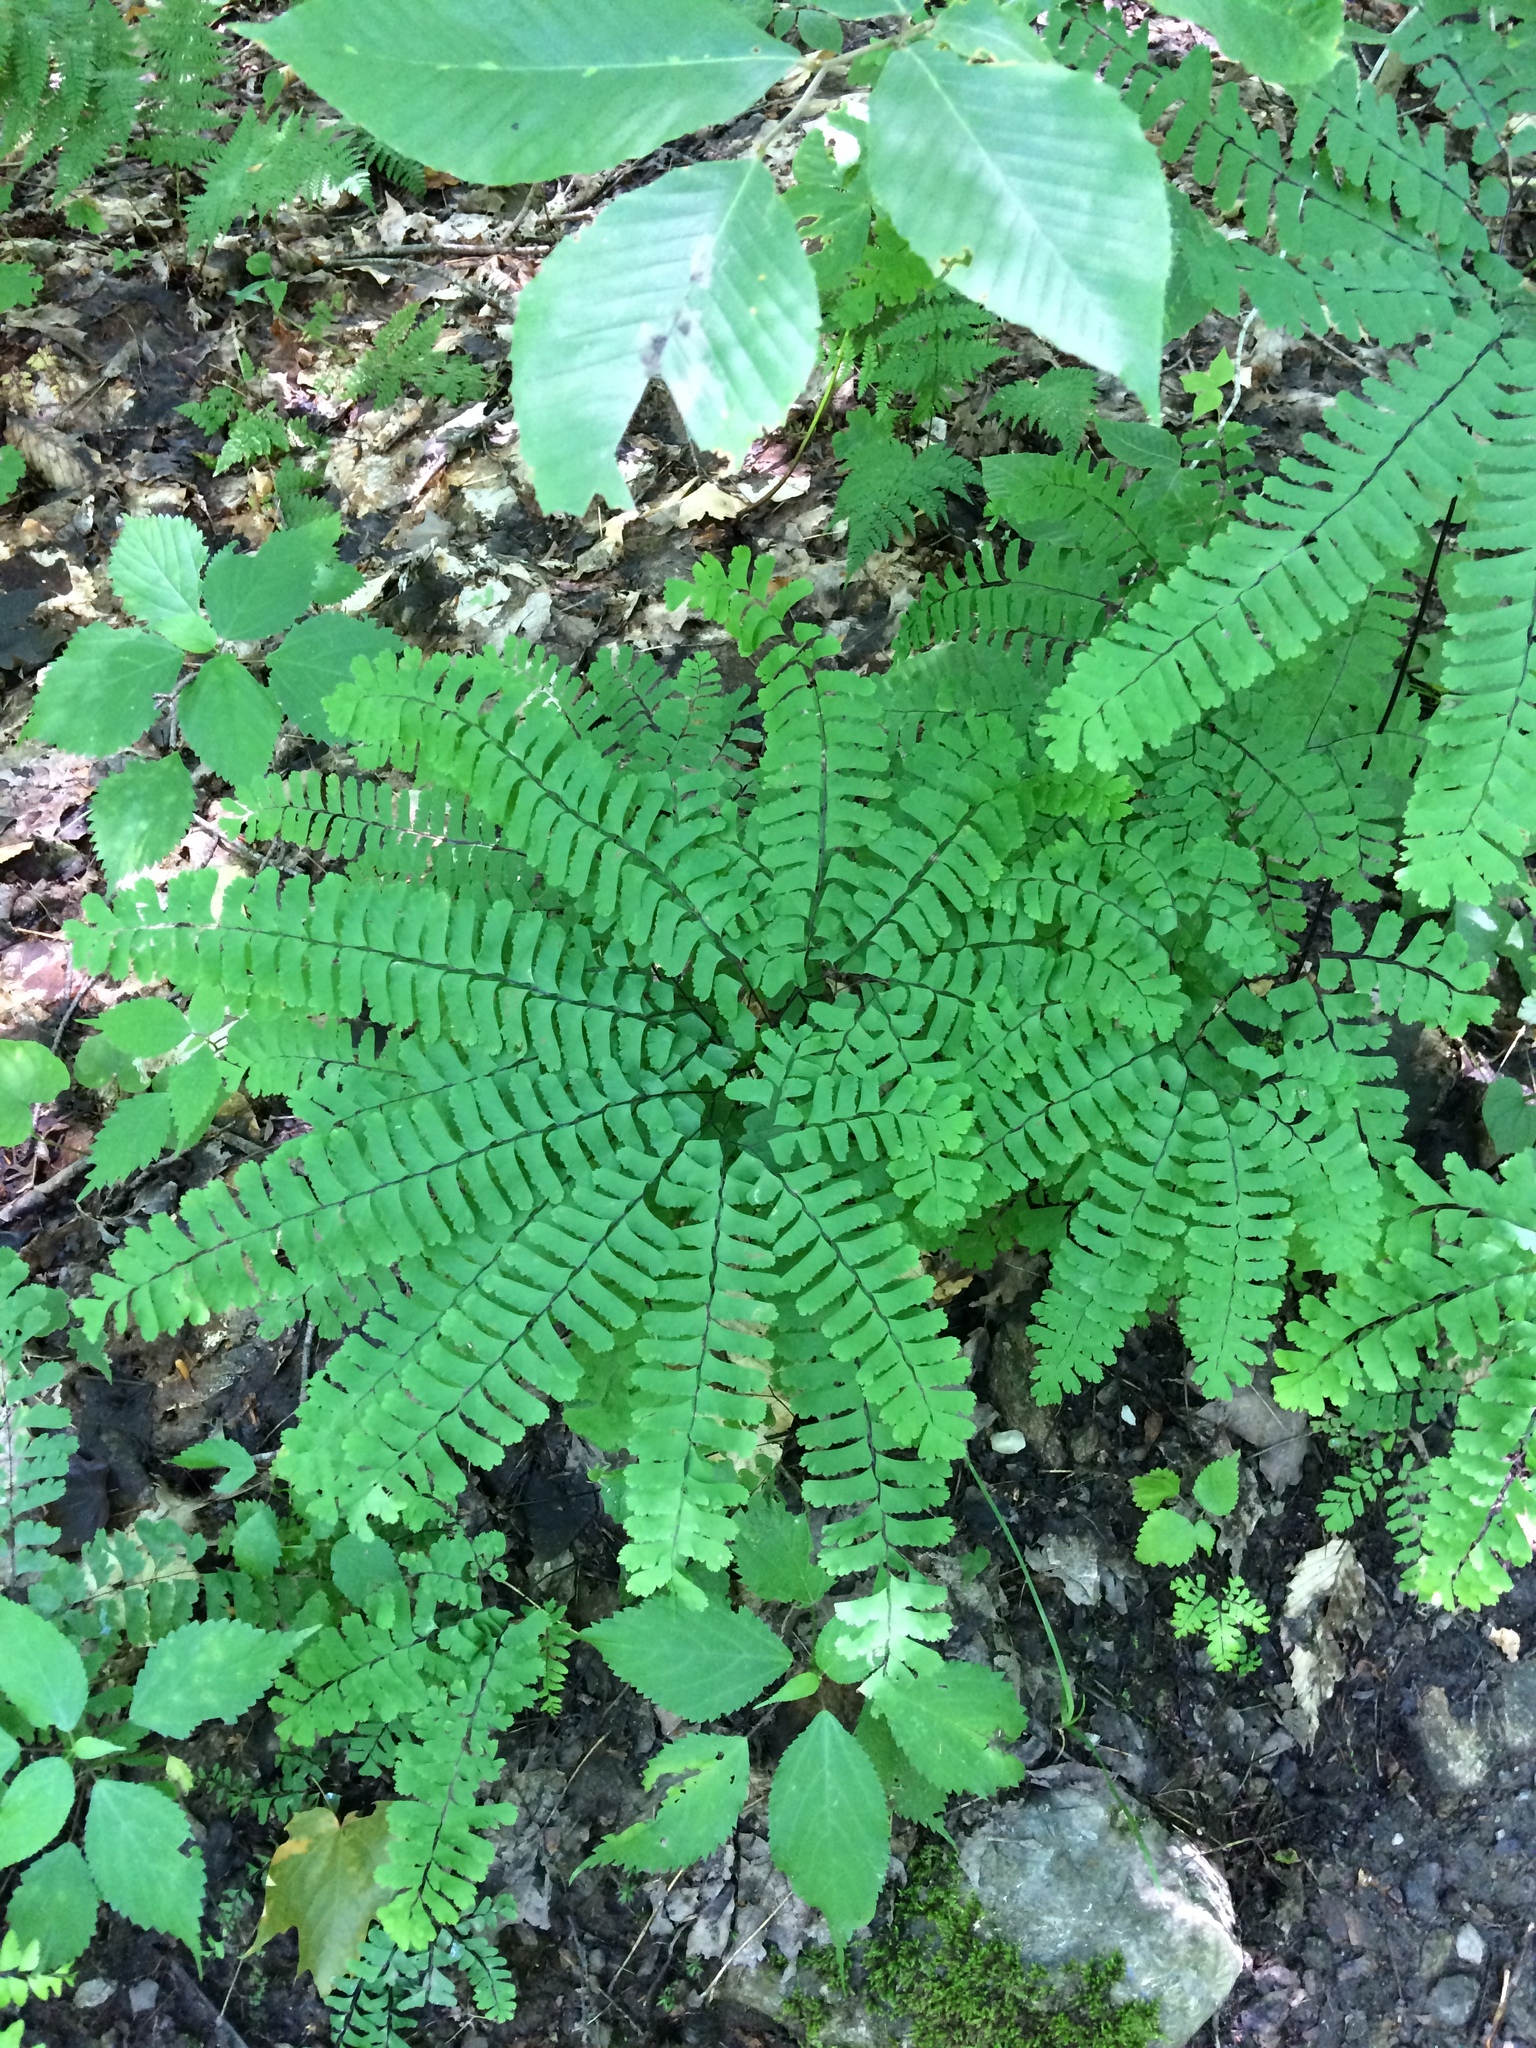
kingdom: Plantae
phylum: Tracheophyta
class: Polypodiopsida
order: Polypodiales
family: Pteridaceae
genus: Adiantum
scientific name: Adiantum pedatum
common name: Five-finger fern
